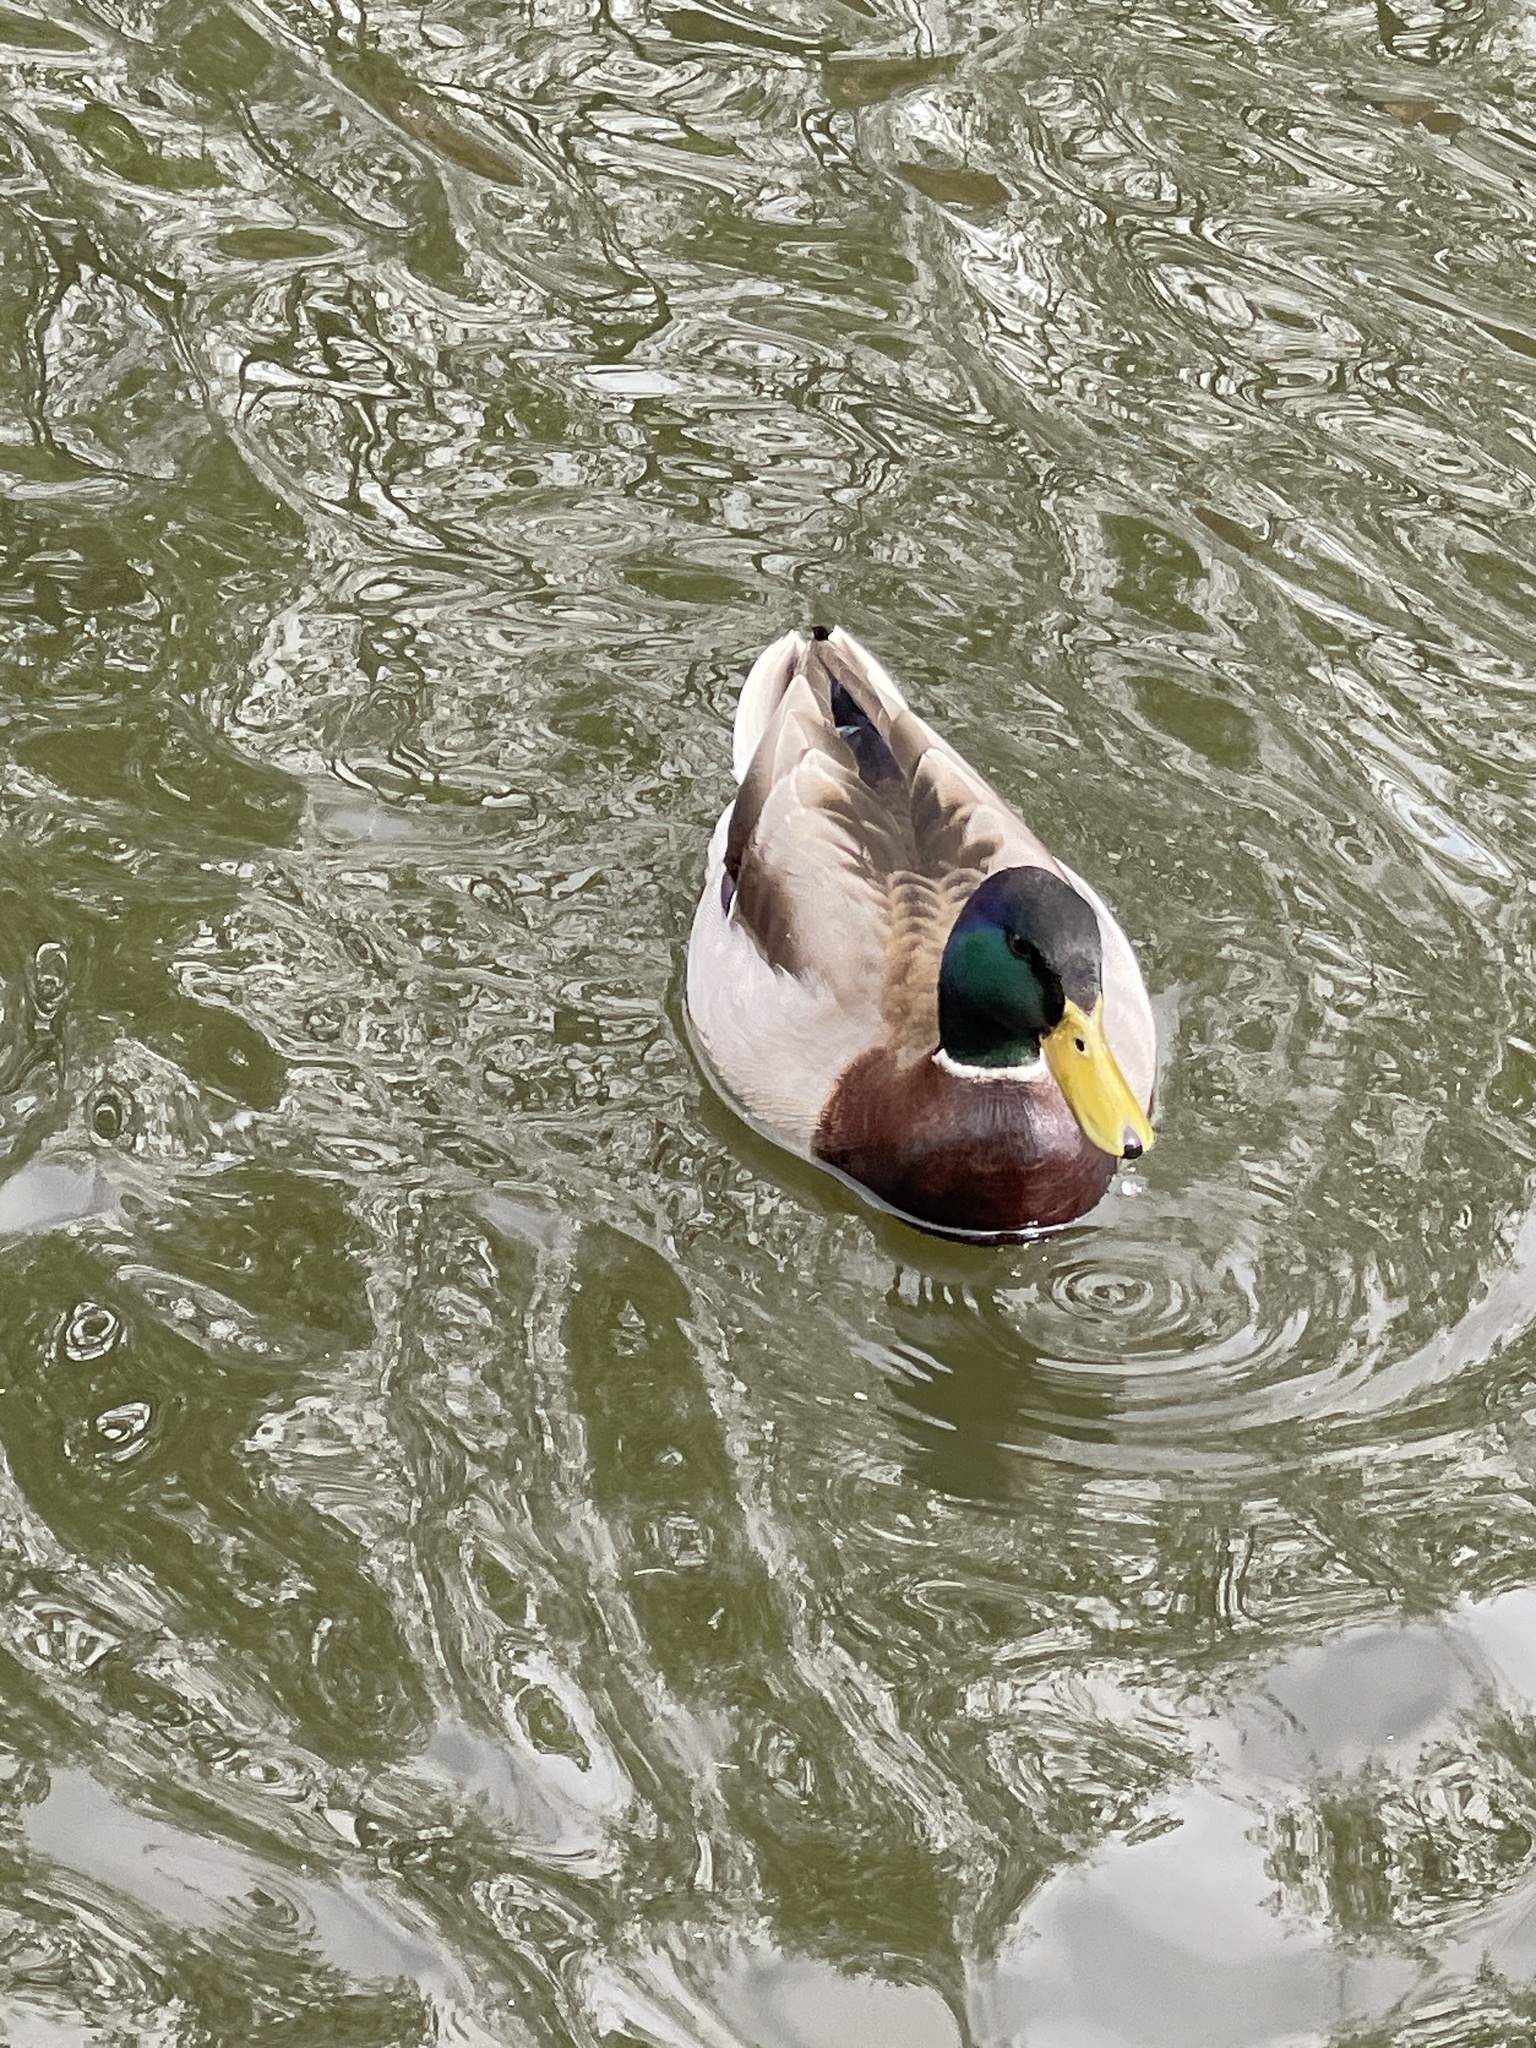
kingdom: Animalia
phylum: Chordata
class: Aves
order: Anseriformes
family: Anatidae
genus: Anas
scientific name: Anas platyrhynchos
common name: Mallard
